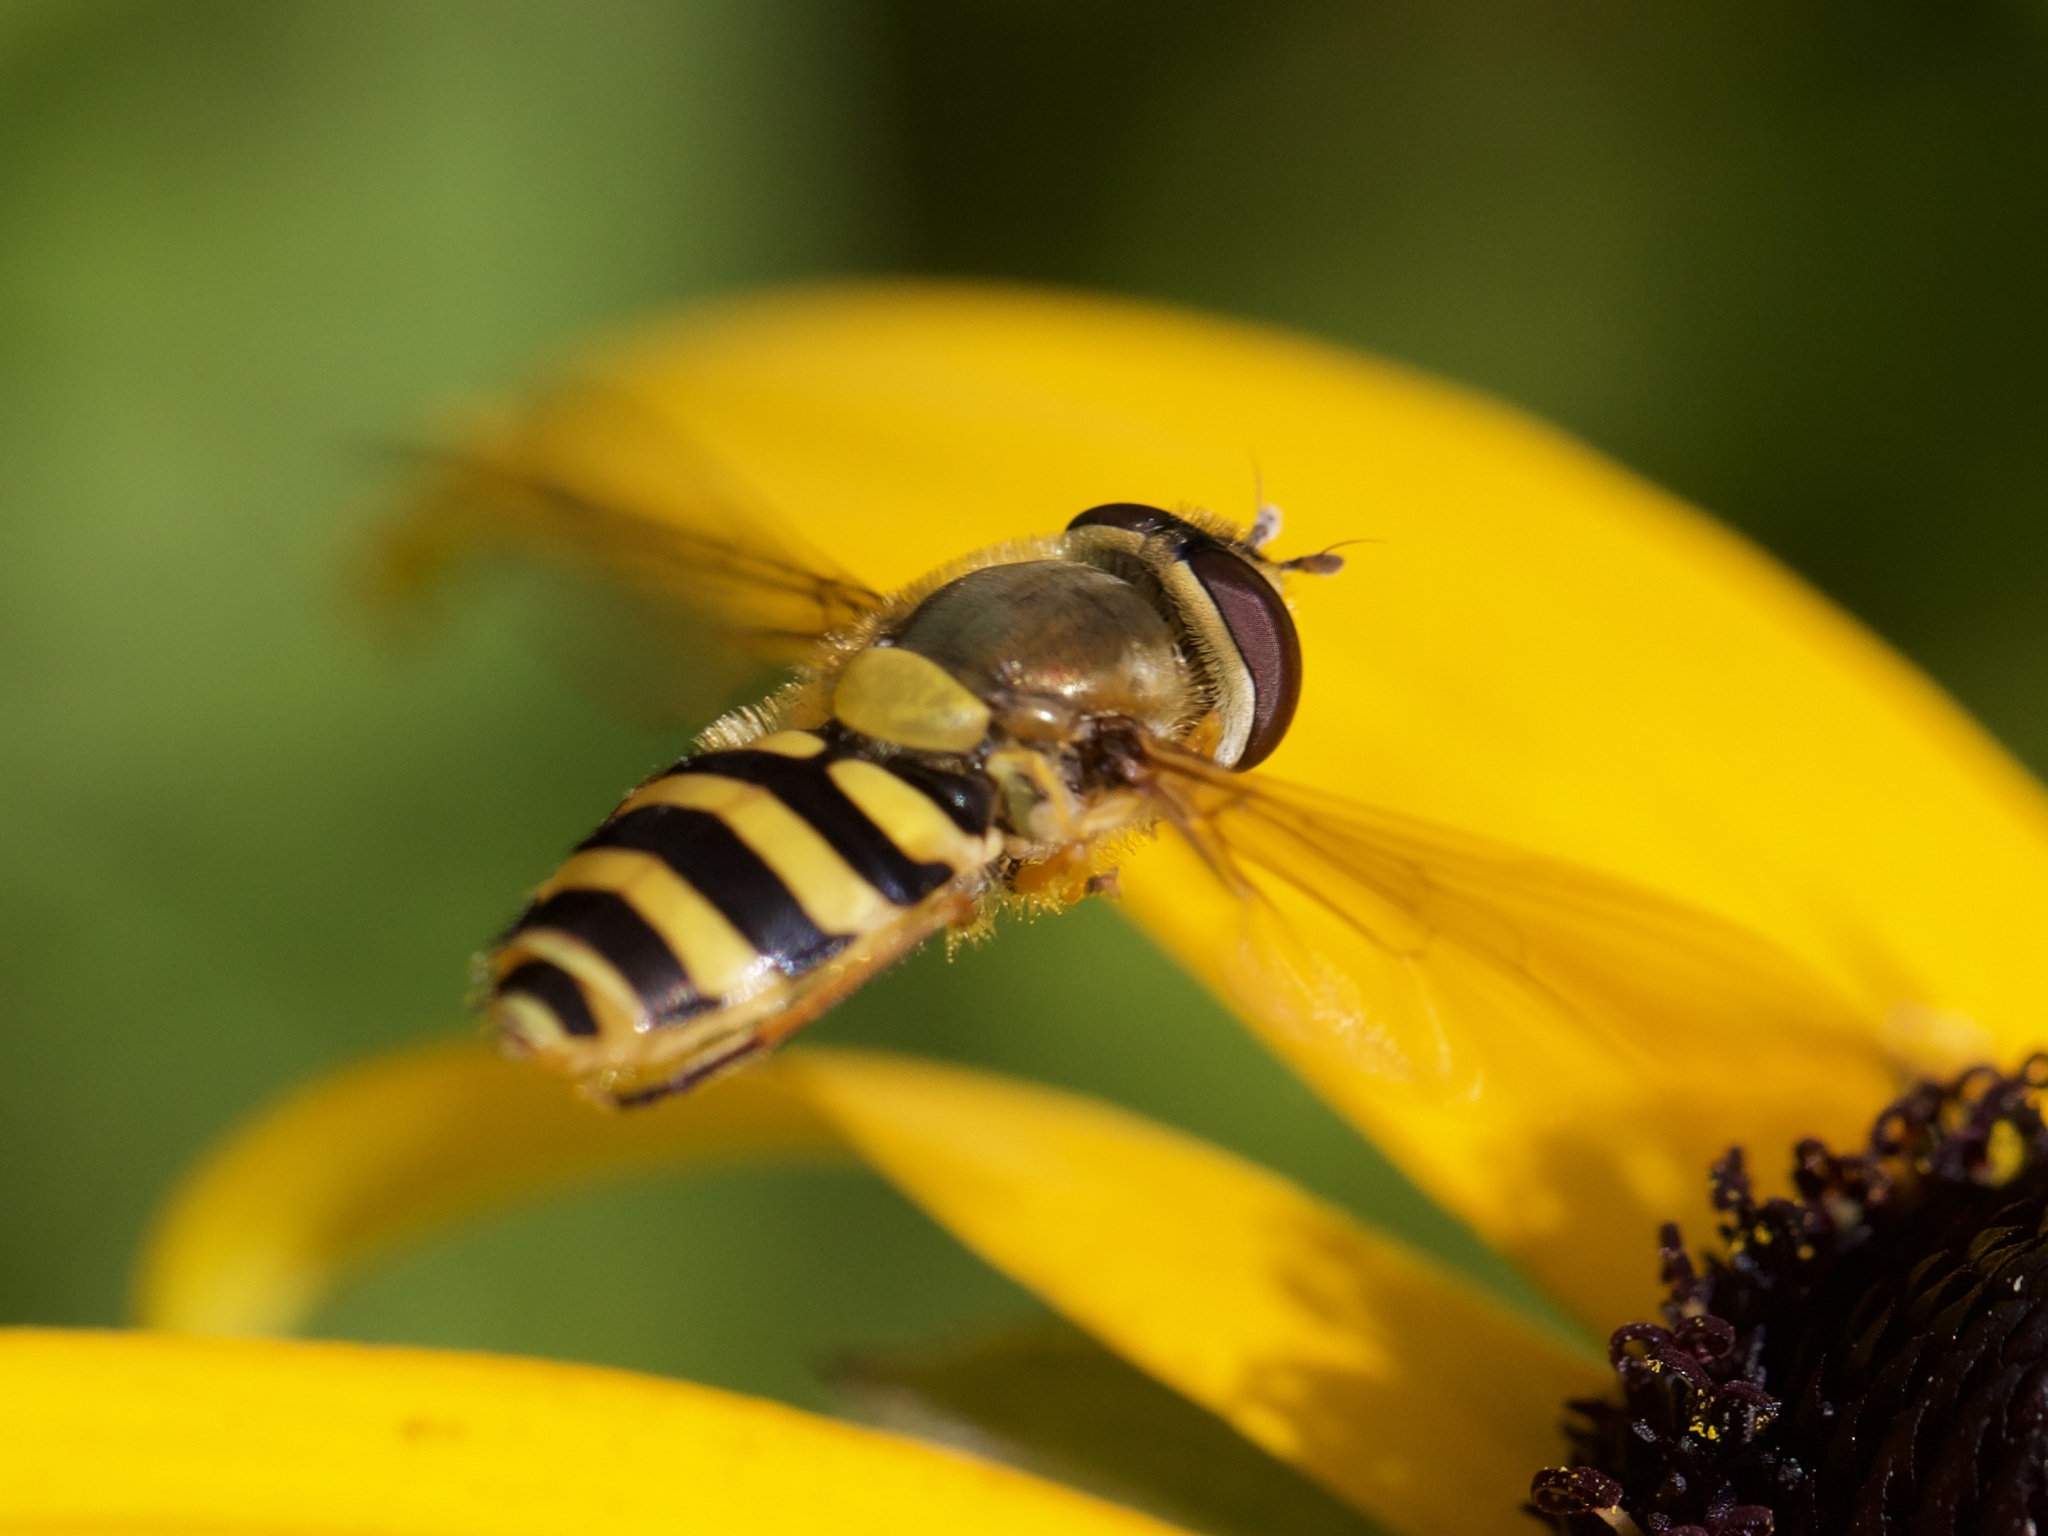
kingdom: Animalia
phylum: Arthropoda
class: Insecta
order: Diptera
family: Syrphidae
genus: Syrphus
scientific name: Syrphus ribesii
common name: Common flower fly
